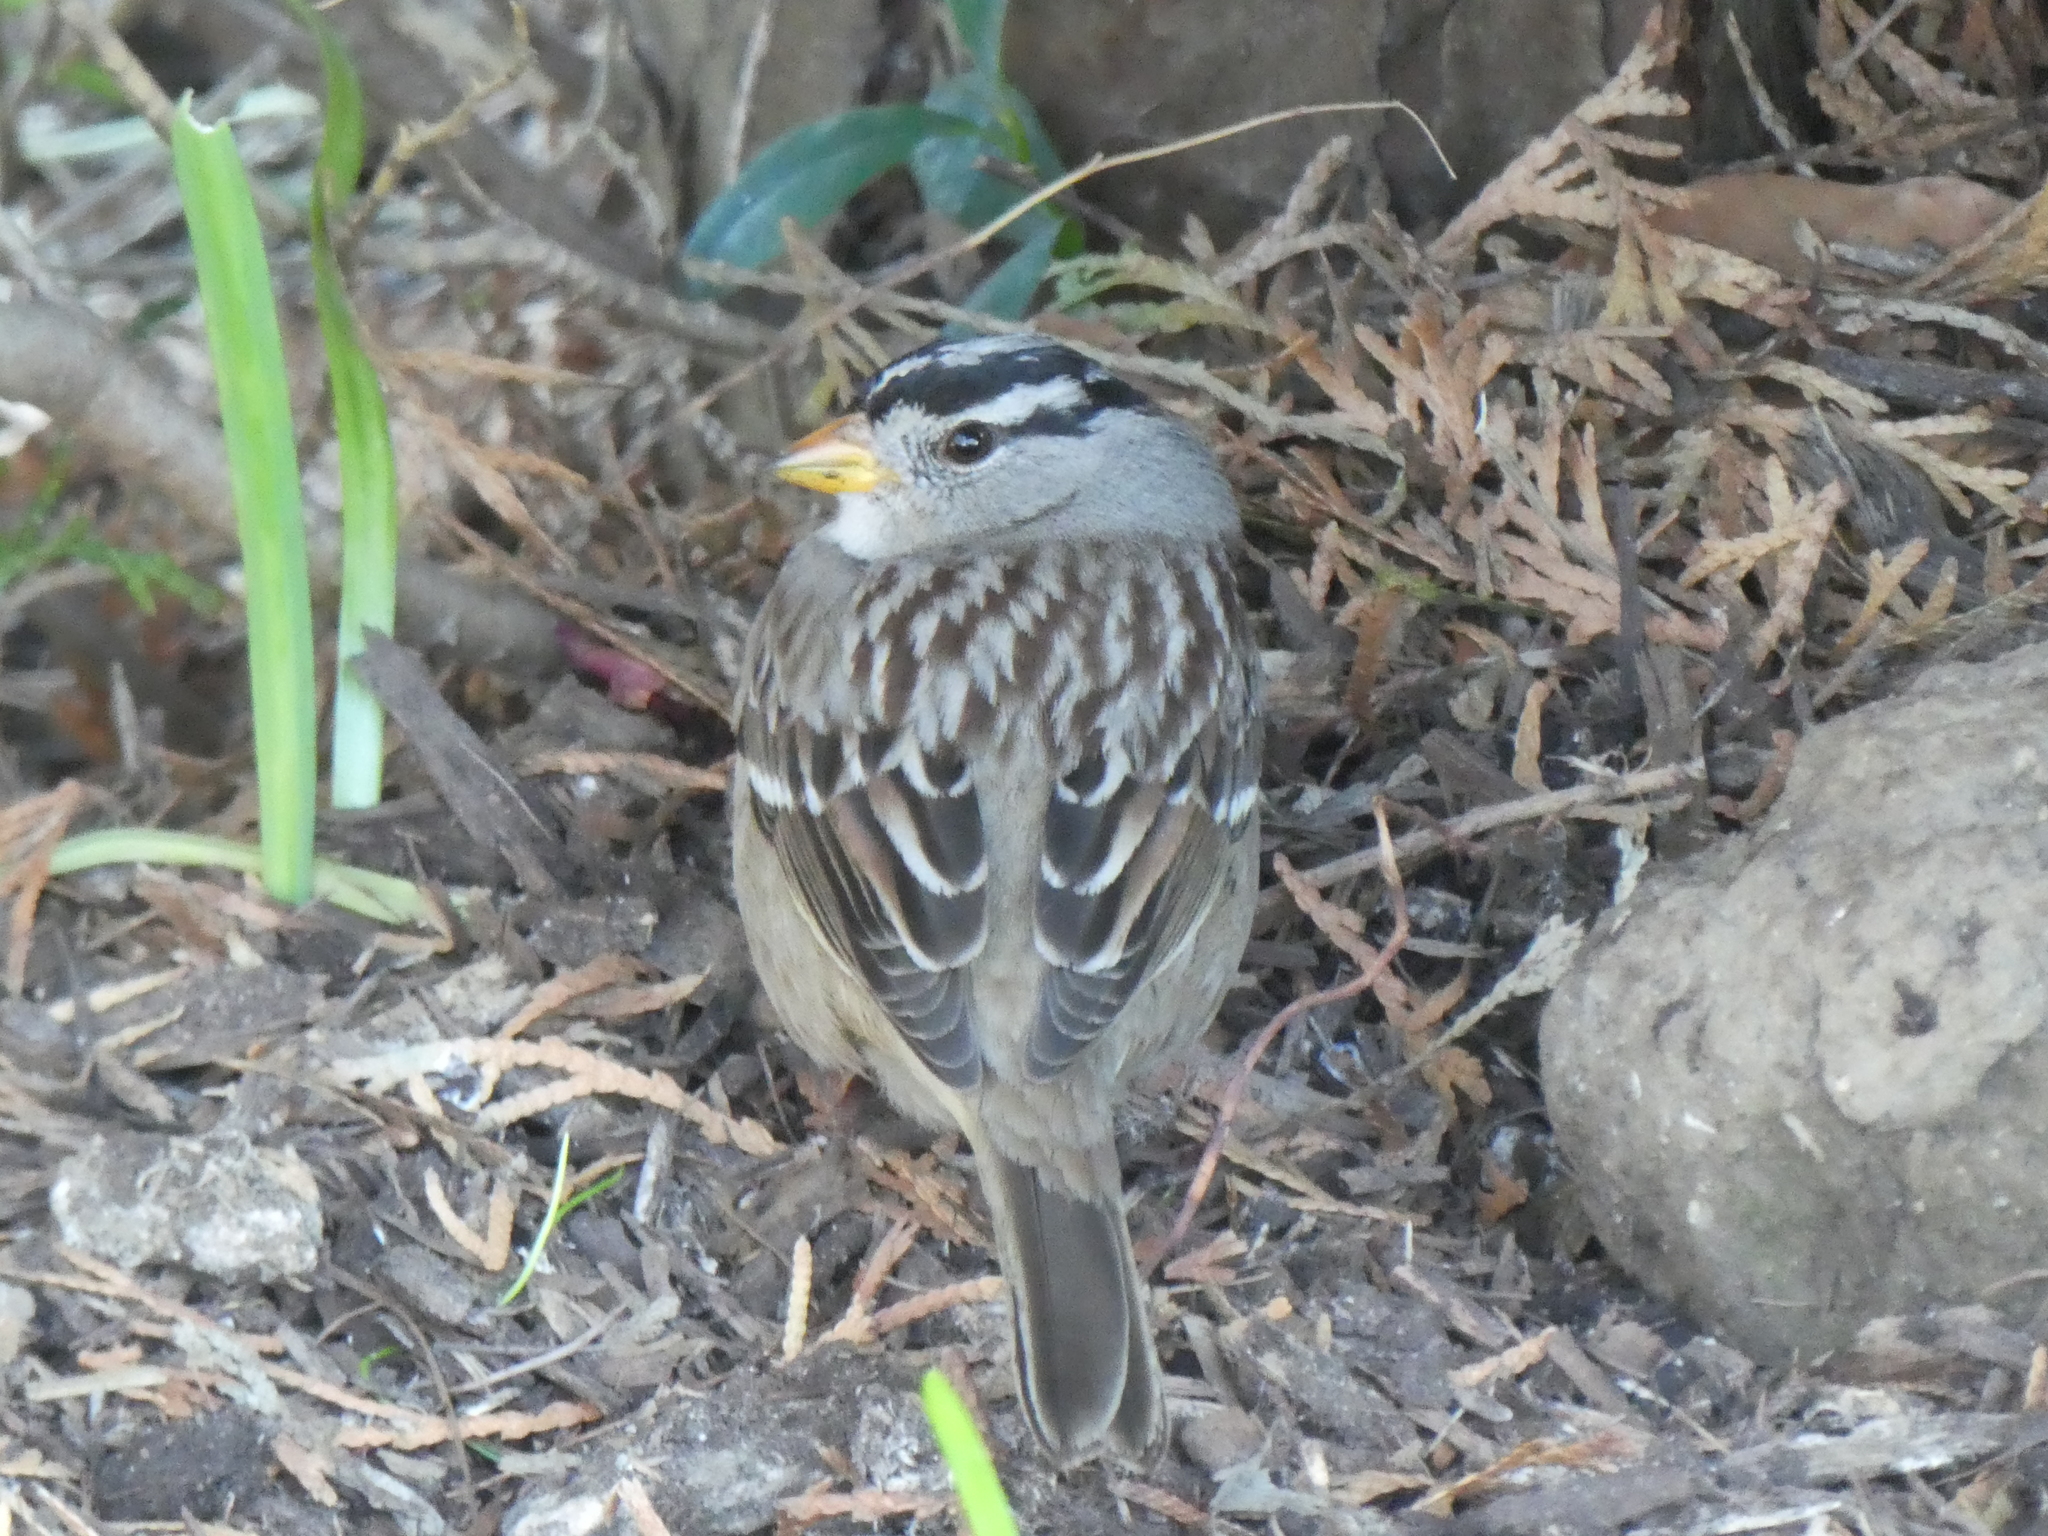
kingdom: Animalia
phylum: Chordata
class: Aves
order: Passeriformes
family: Passerellidae
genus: Zonotrichia
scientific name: Zonotrichia leucophrys
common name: White-crowned sparrow
